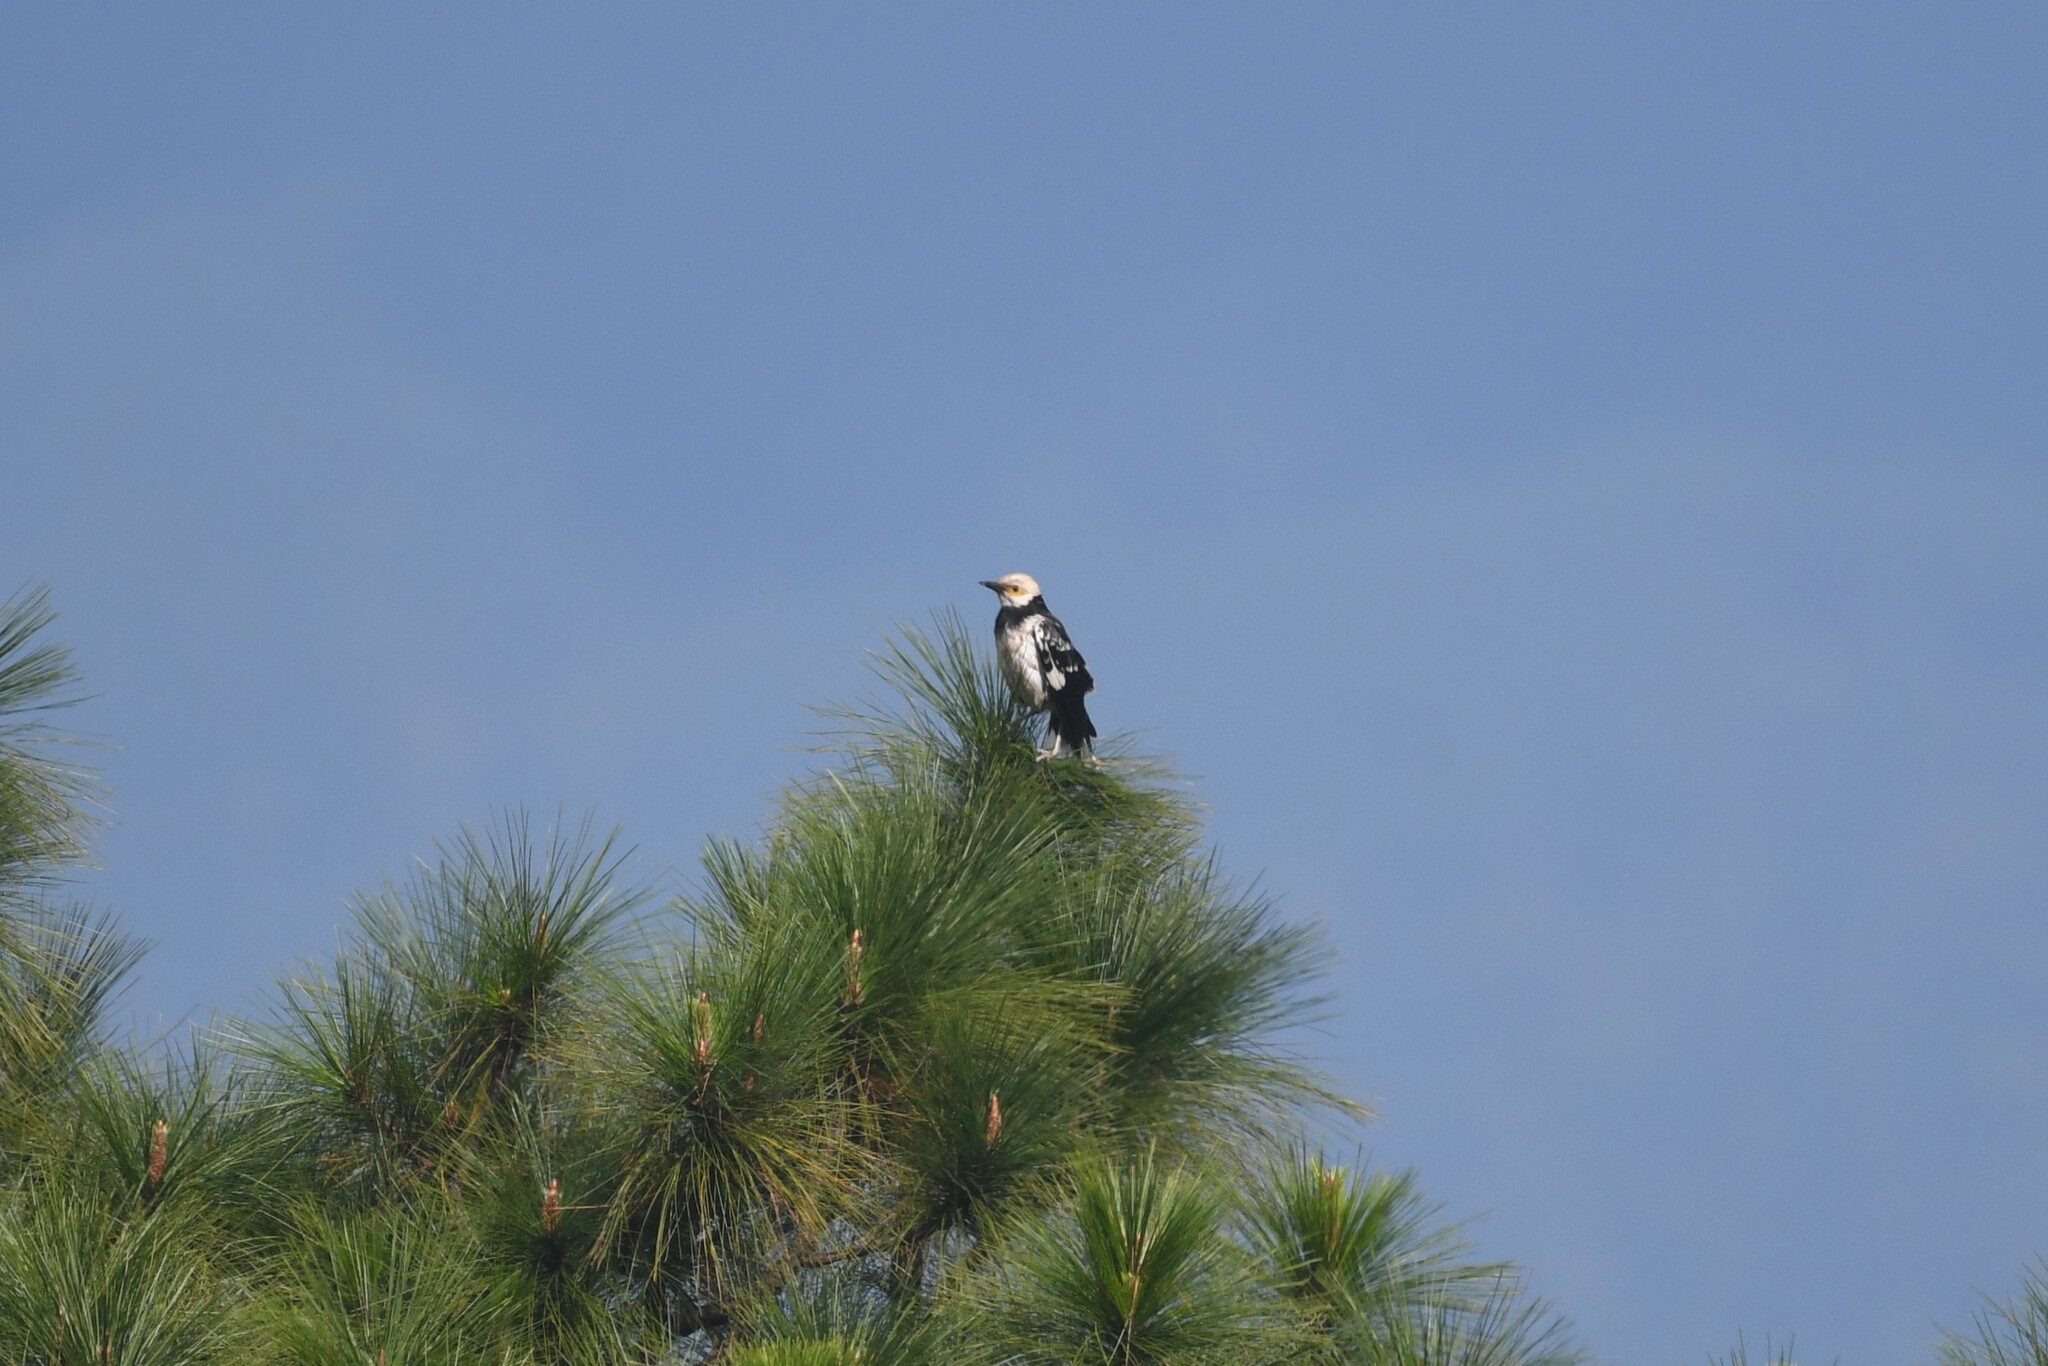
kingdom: Animalia
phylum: Chordata
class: Aves
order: Passeriformes
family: Sturnidae
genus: Gracupica
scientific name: Gracupica nigricollis
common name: Black-collared starling
